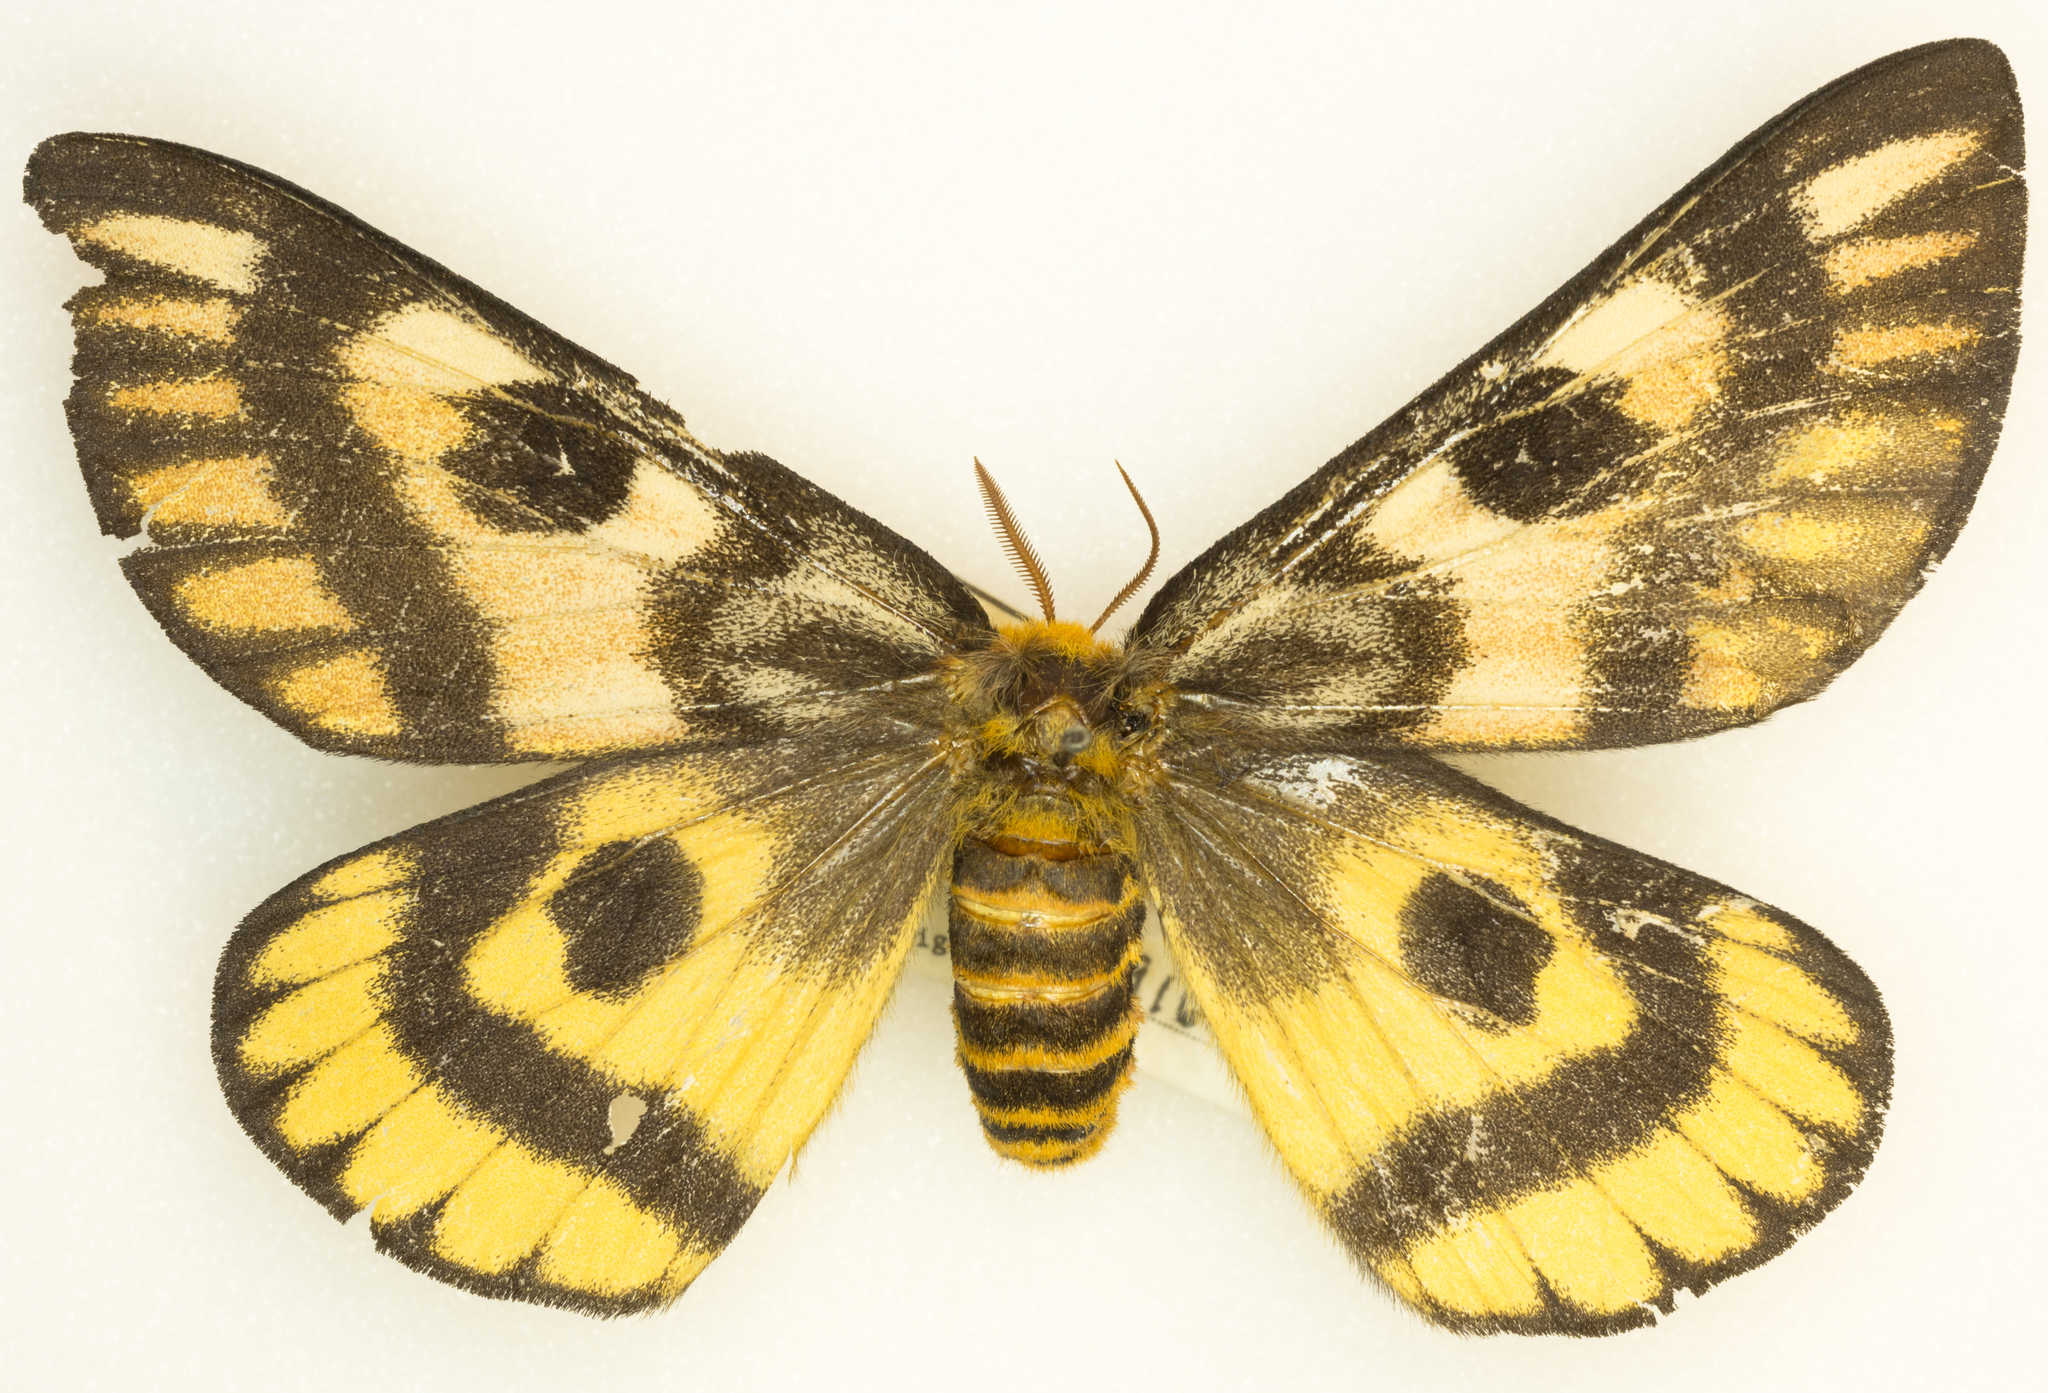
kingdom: Animalia
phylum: Arthropoda
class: Insecta
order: Lepidoptera
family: Saturniidae
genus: Hemileuca
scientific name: Hemileuca eglanterina
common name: Western sheepmoth
